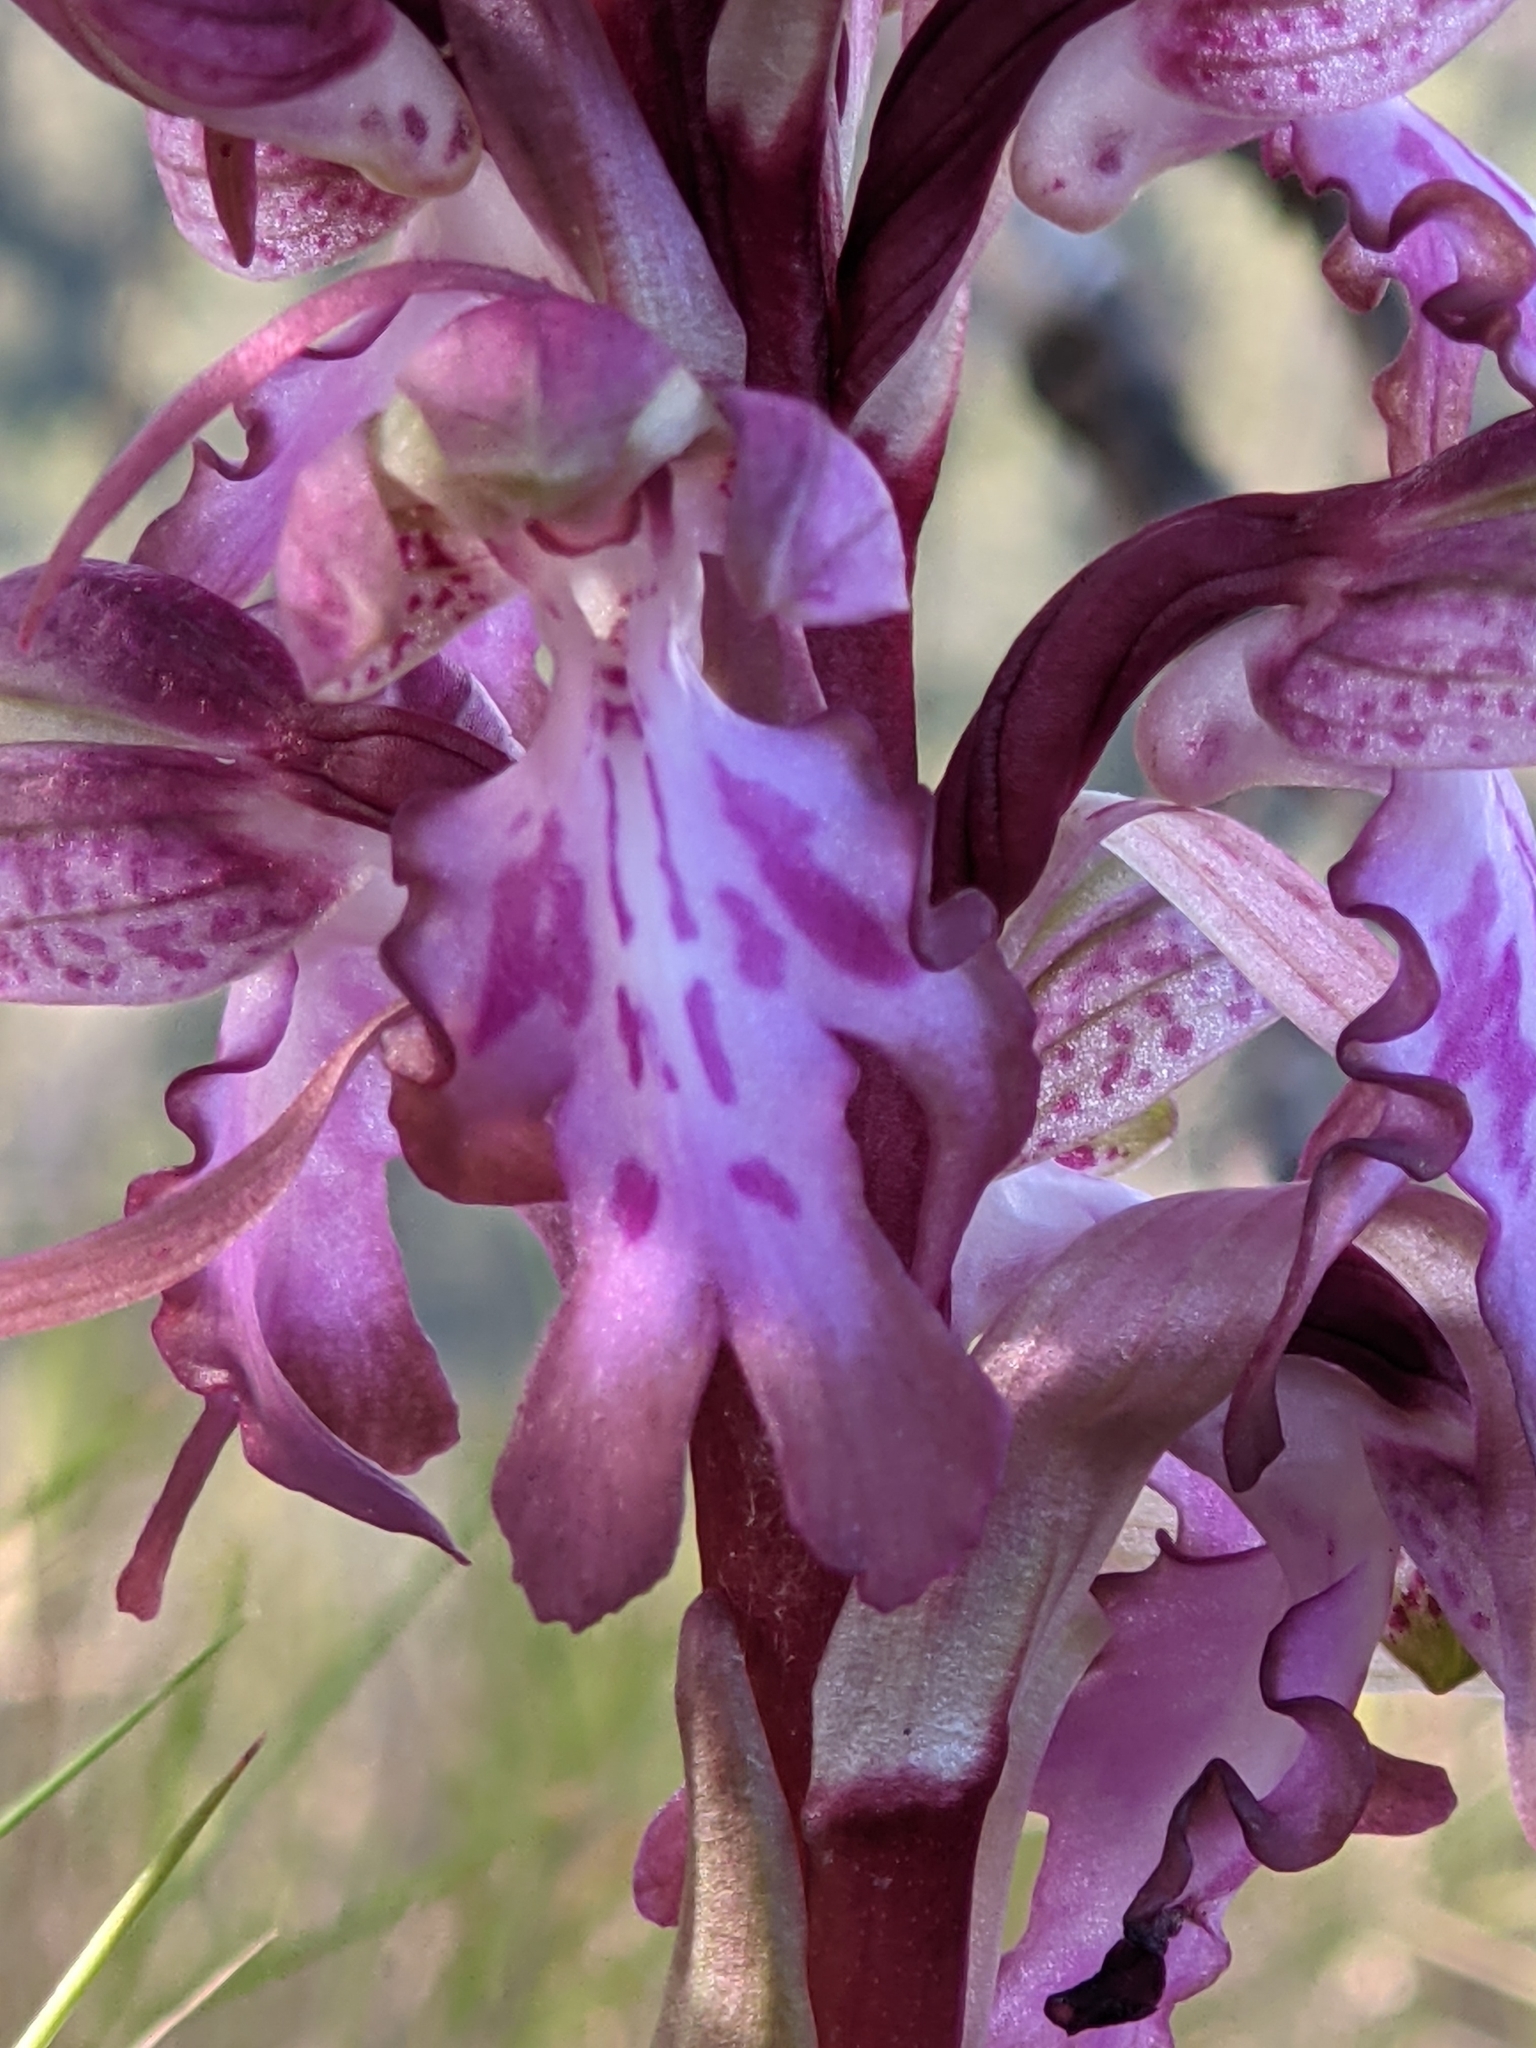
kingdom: Plantae
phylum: Tracheophyta
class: Liliopsida
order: Asparagales
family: Orchidaceae
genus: Himantoglossum
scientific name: Himantoglossum robertianum
